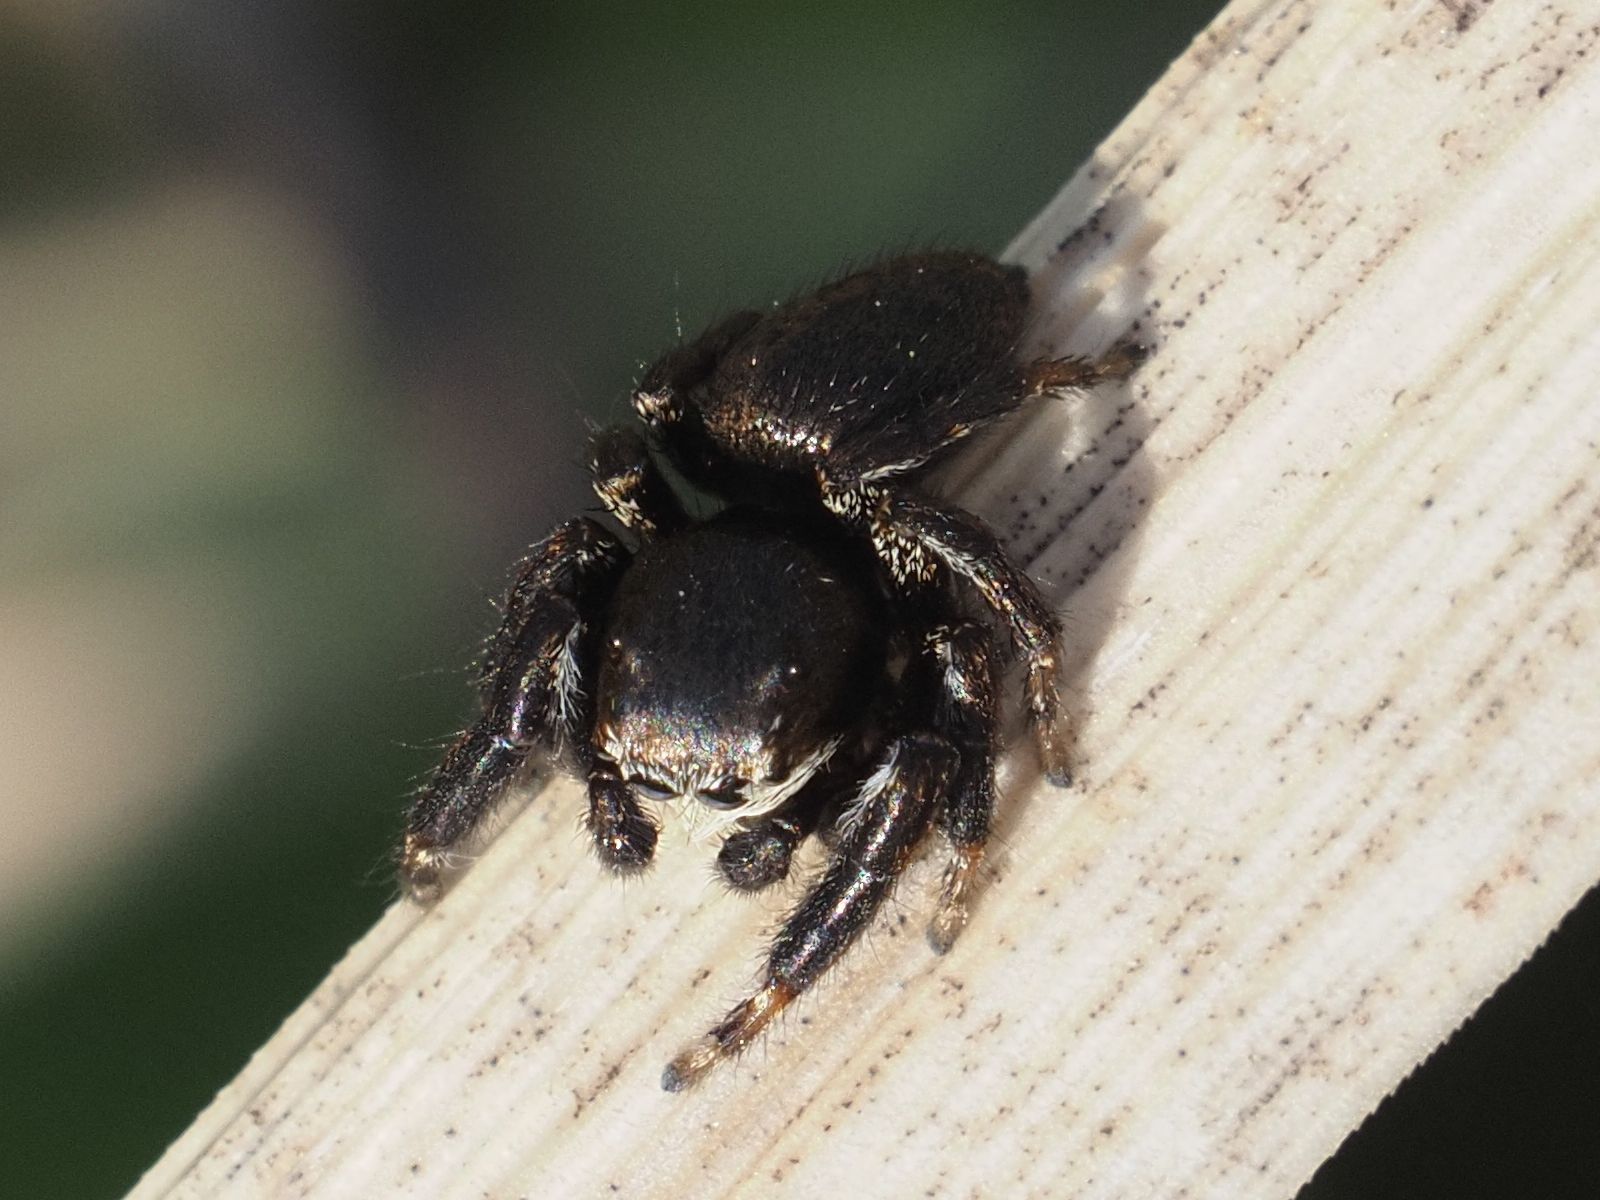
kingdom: Animalia
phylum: Arthropoda
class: Arachnida
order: Araneae
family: Salticidae
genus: Evarcha
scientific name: Evarcha arcuata
